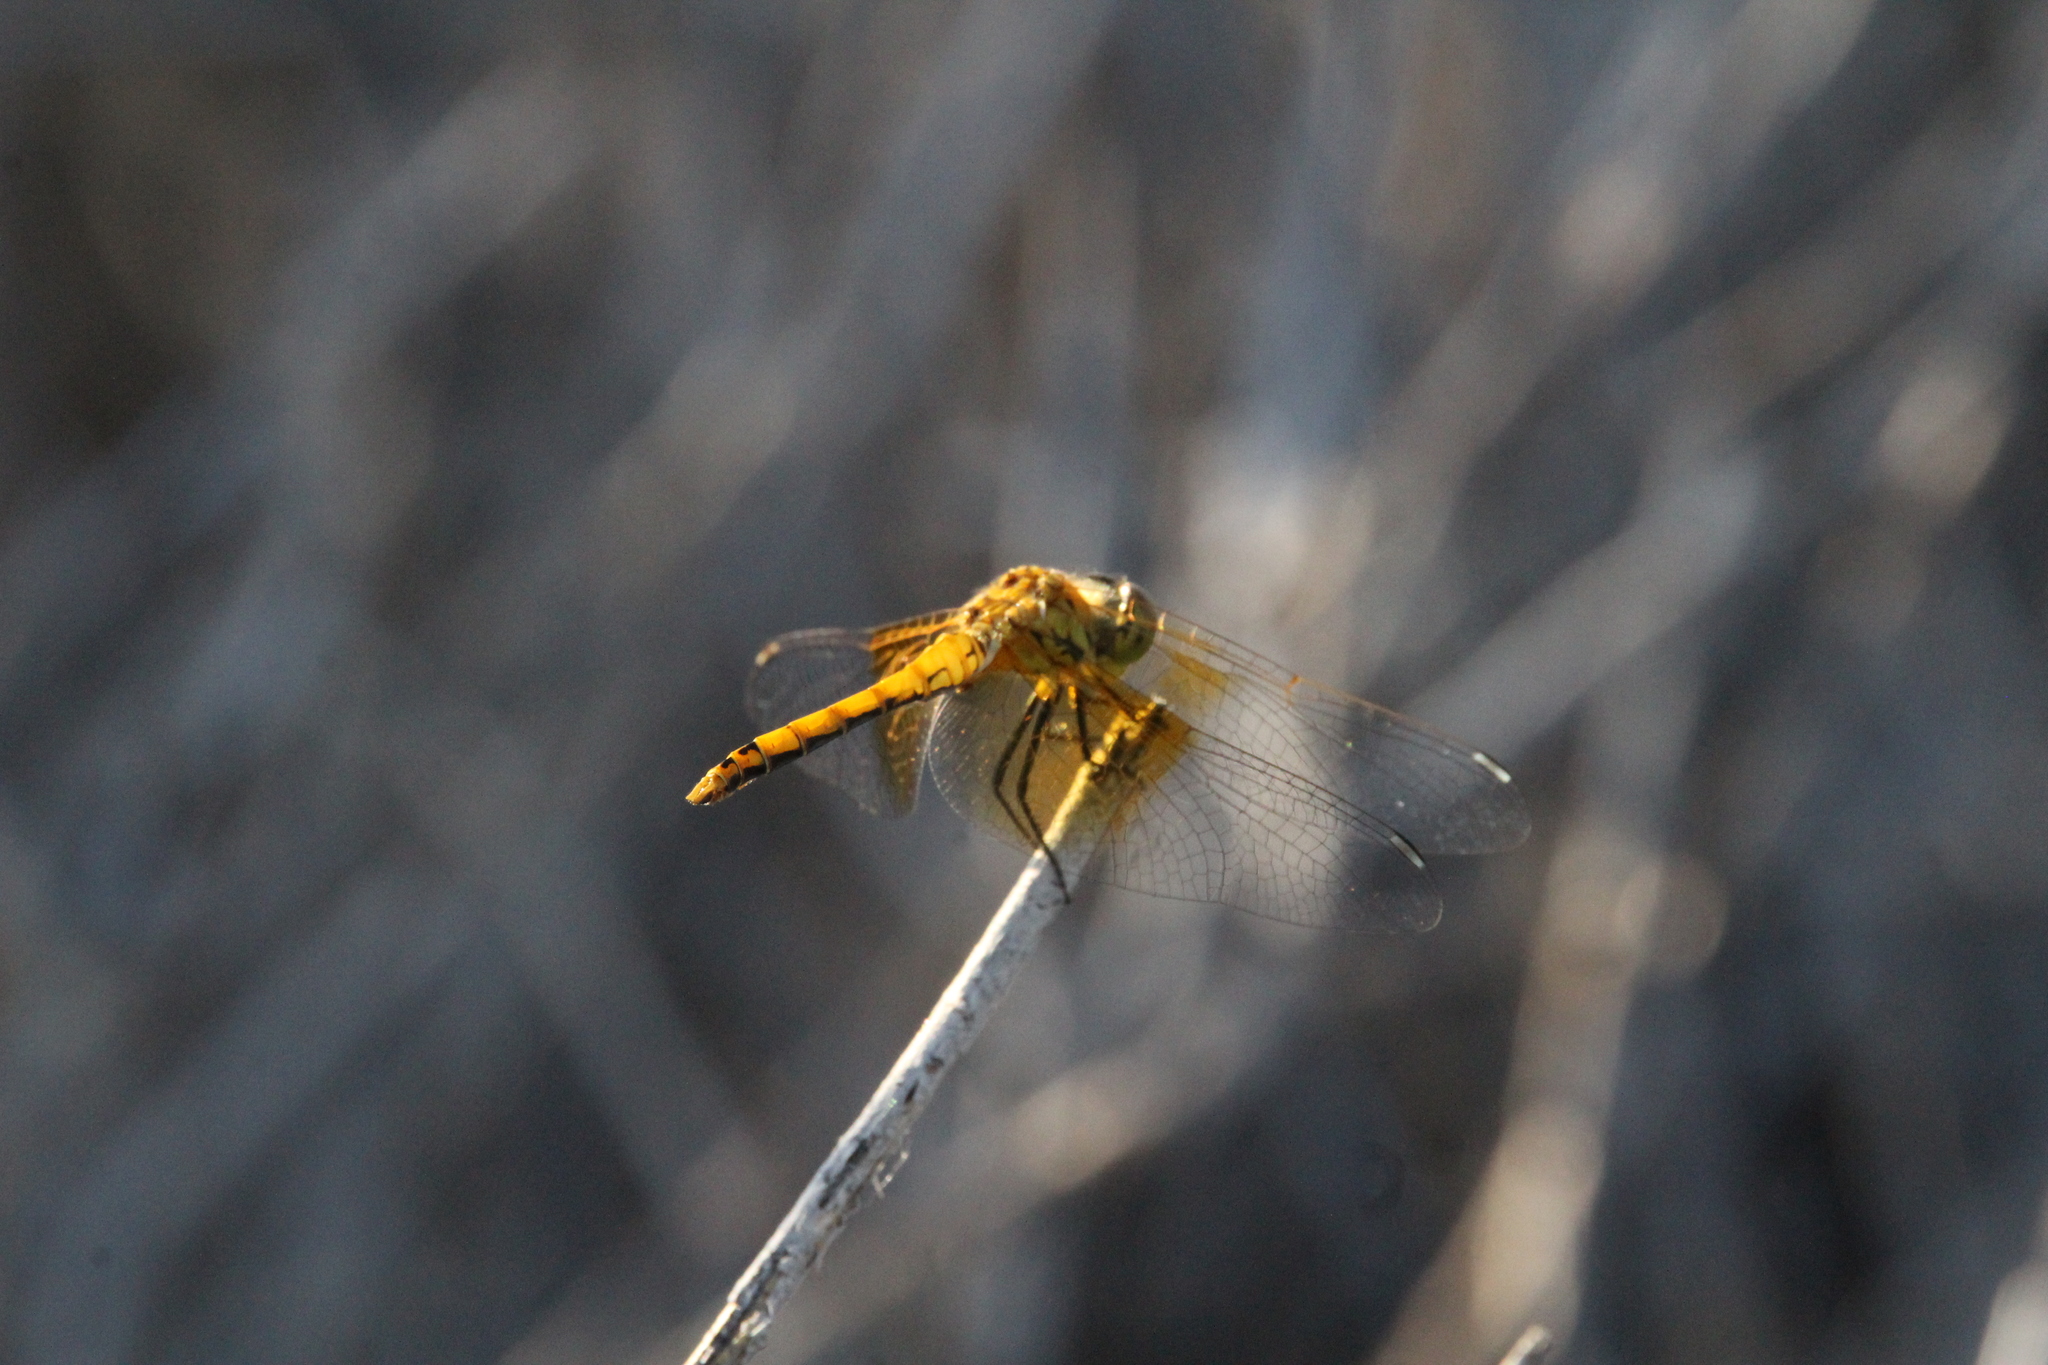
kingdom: Animalia
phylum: Arthropoda
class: Insecta
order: Odonata
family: Libellulidae
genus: Sympetrum
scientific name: Sympetrum semicinctum
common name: Band-winged meadowhawk
